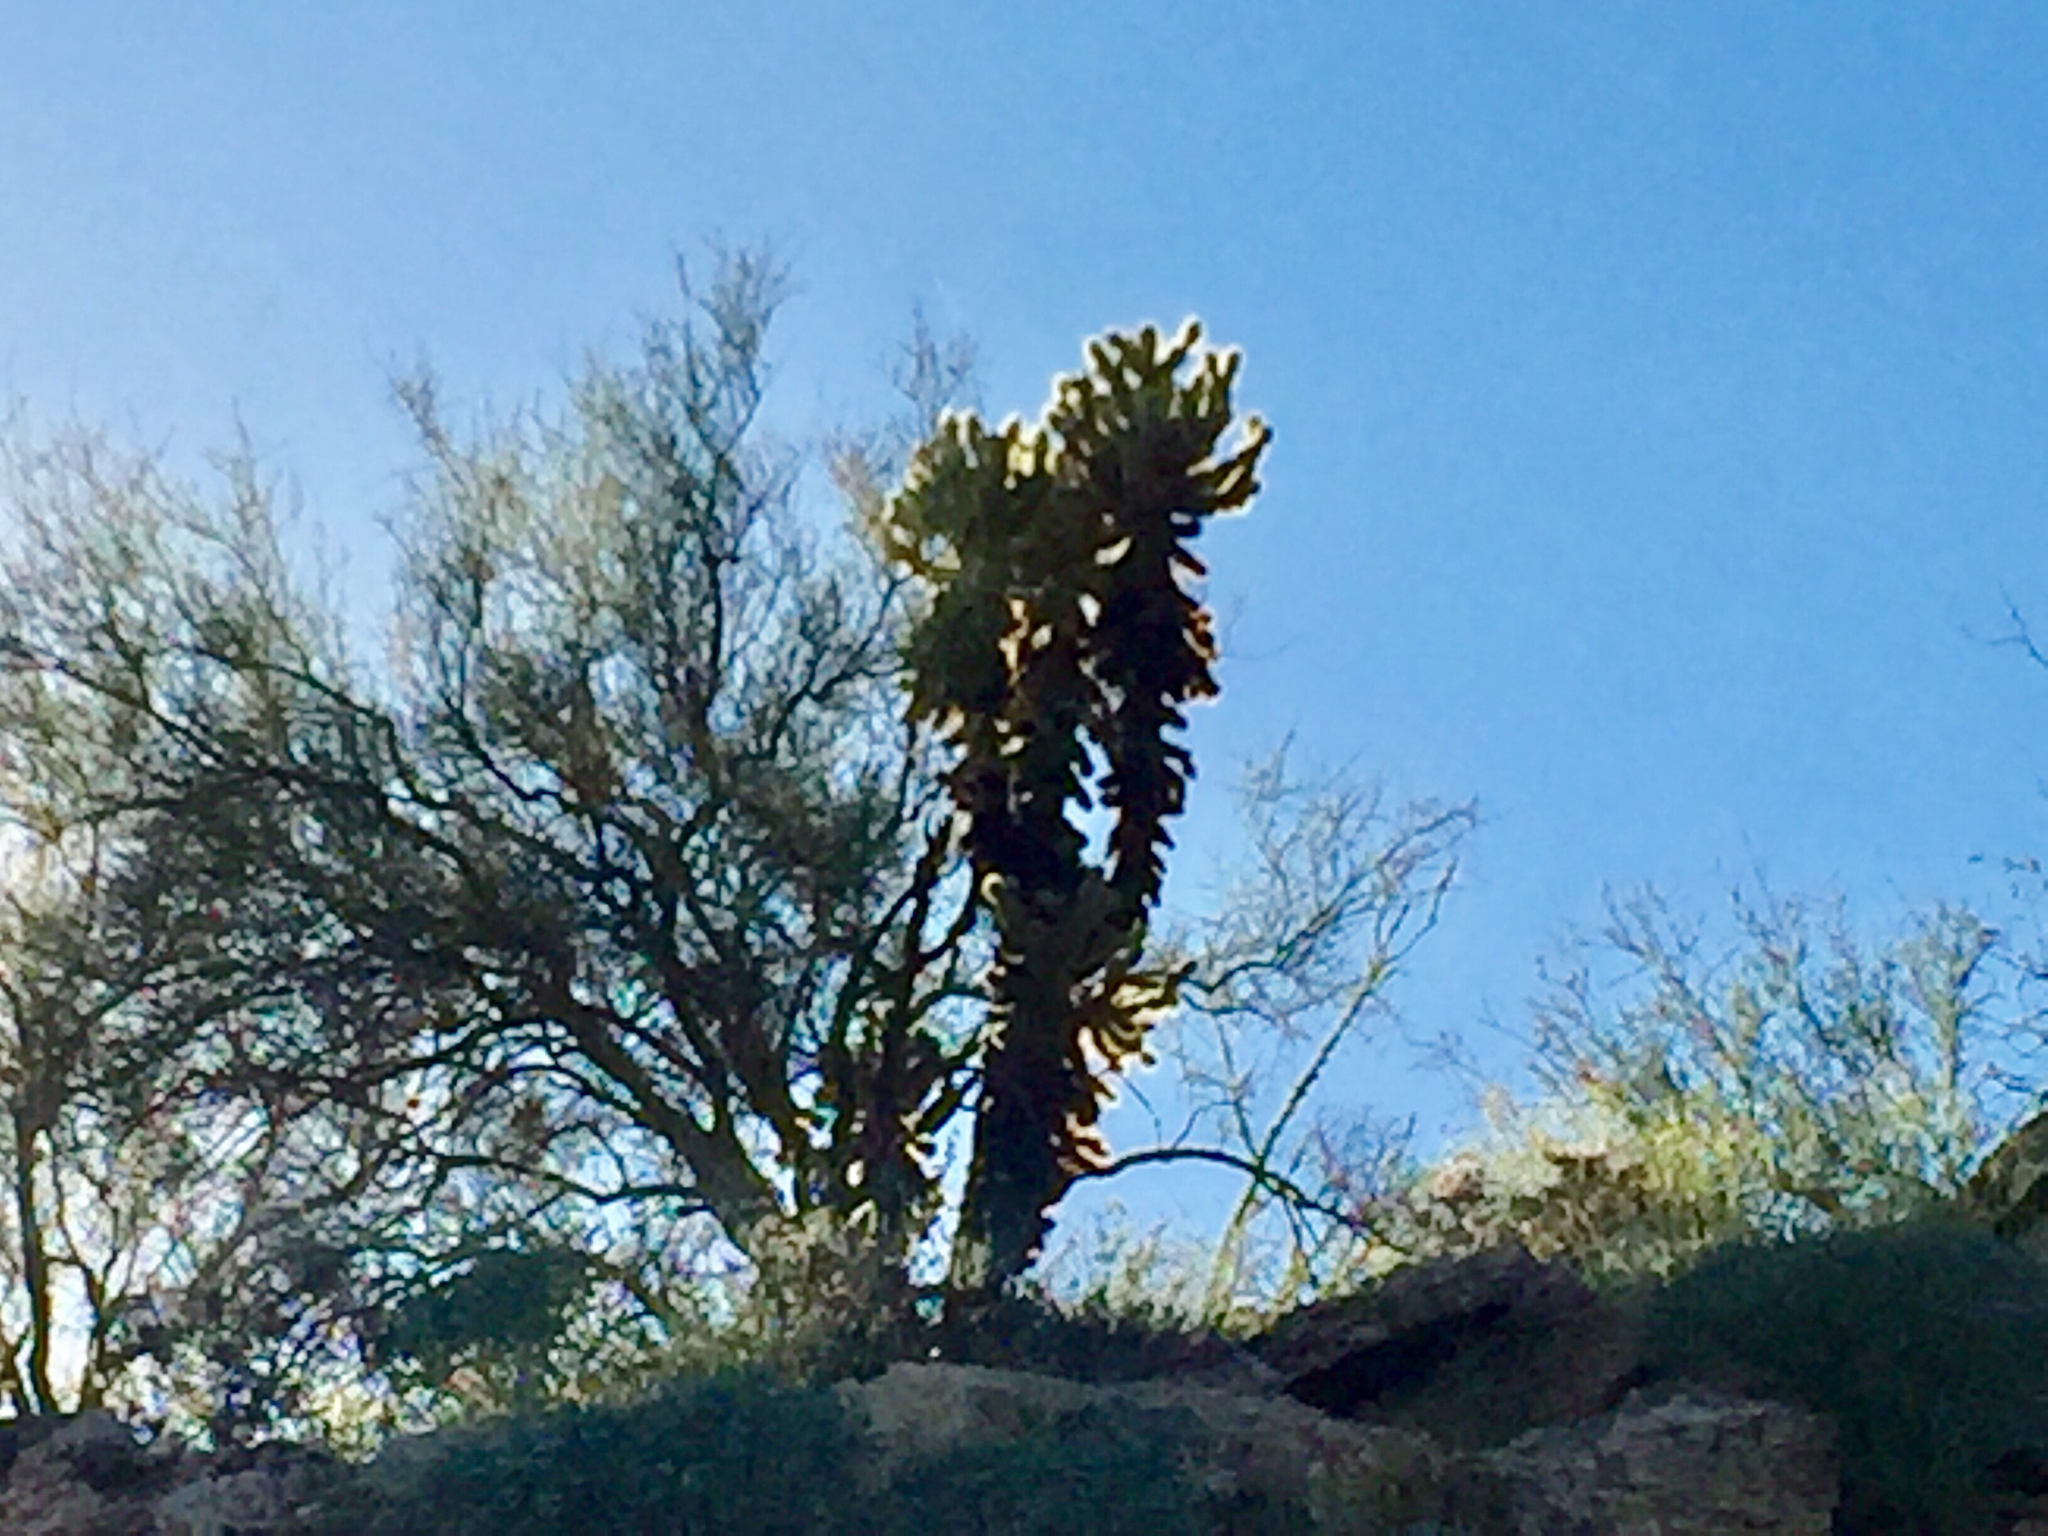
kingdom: Plantae
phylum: Tracheophyta
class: Magnoliopsida
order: Caryophyllales
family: Cactaceae
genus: Cylindropuntia
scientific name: Cylindropuntia fosbergii
